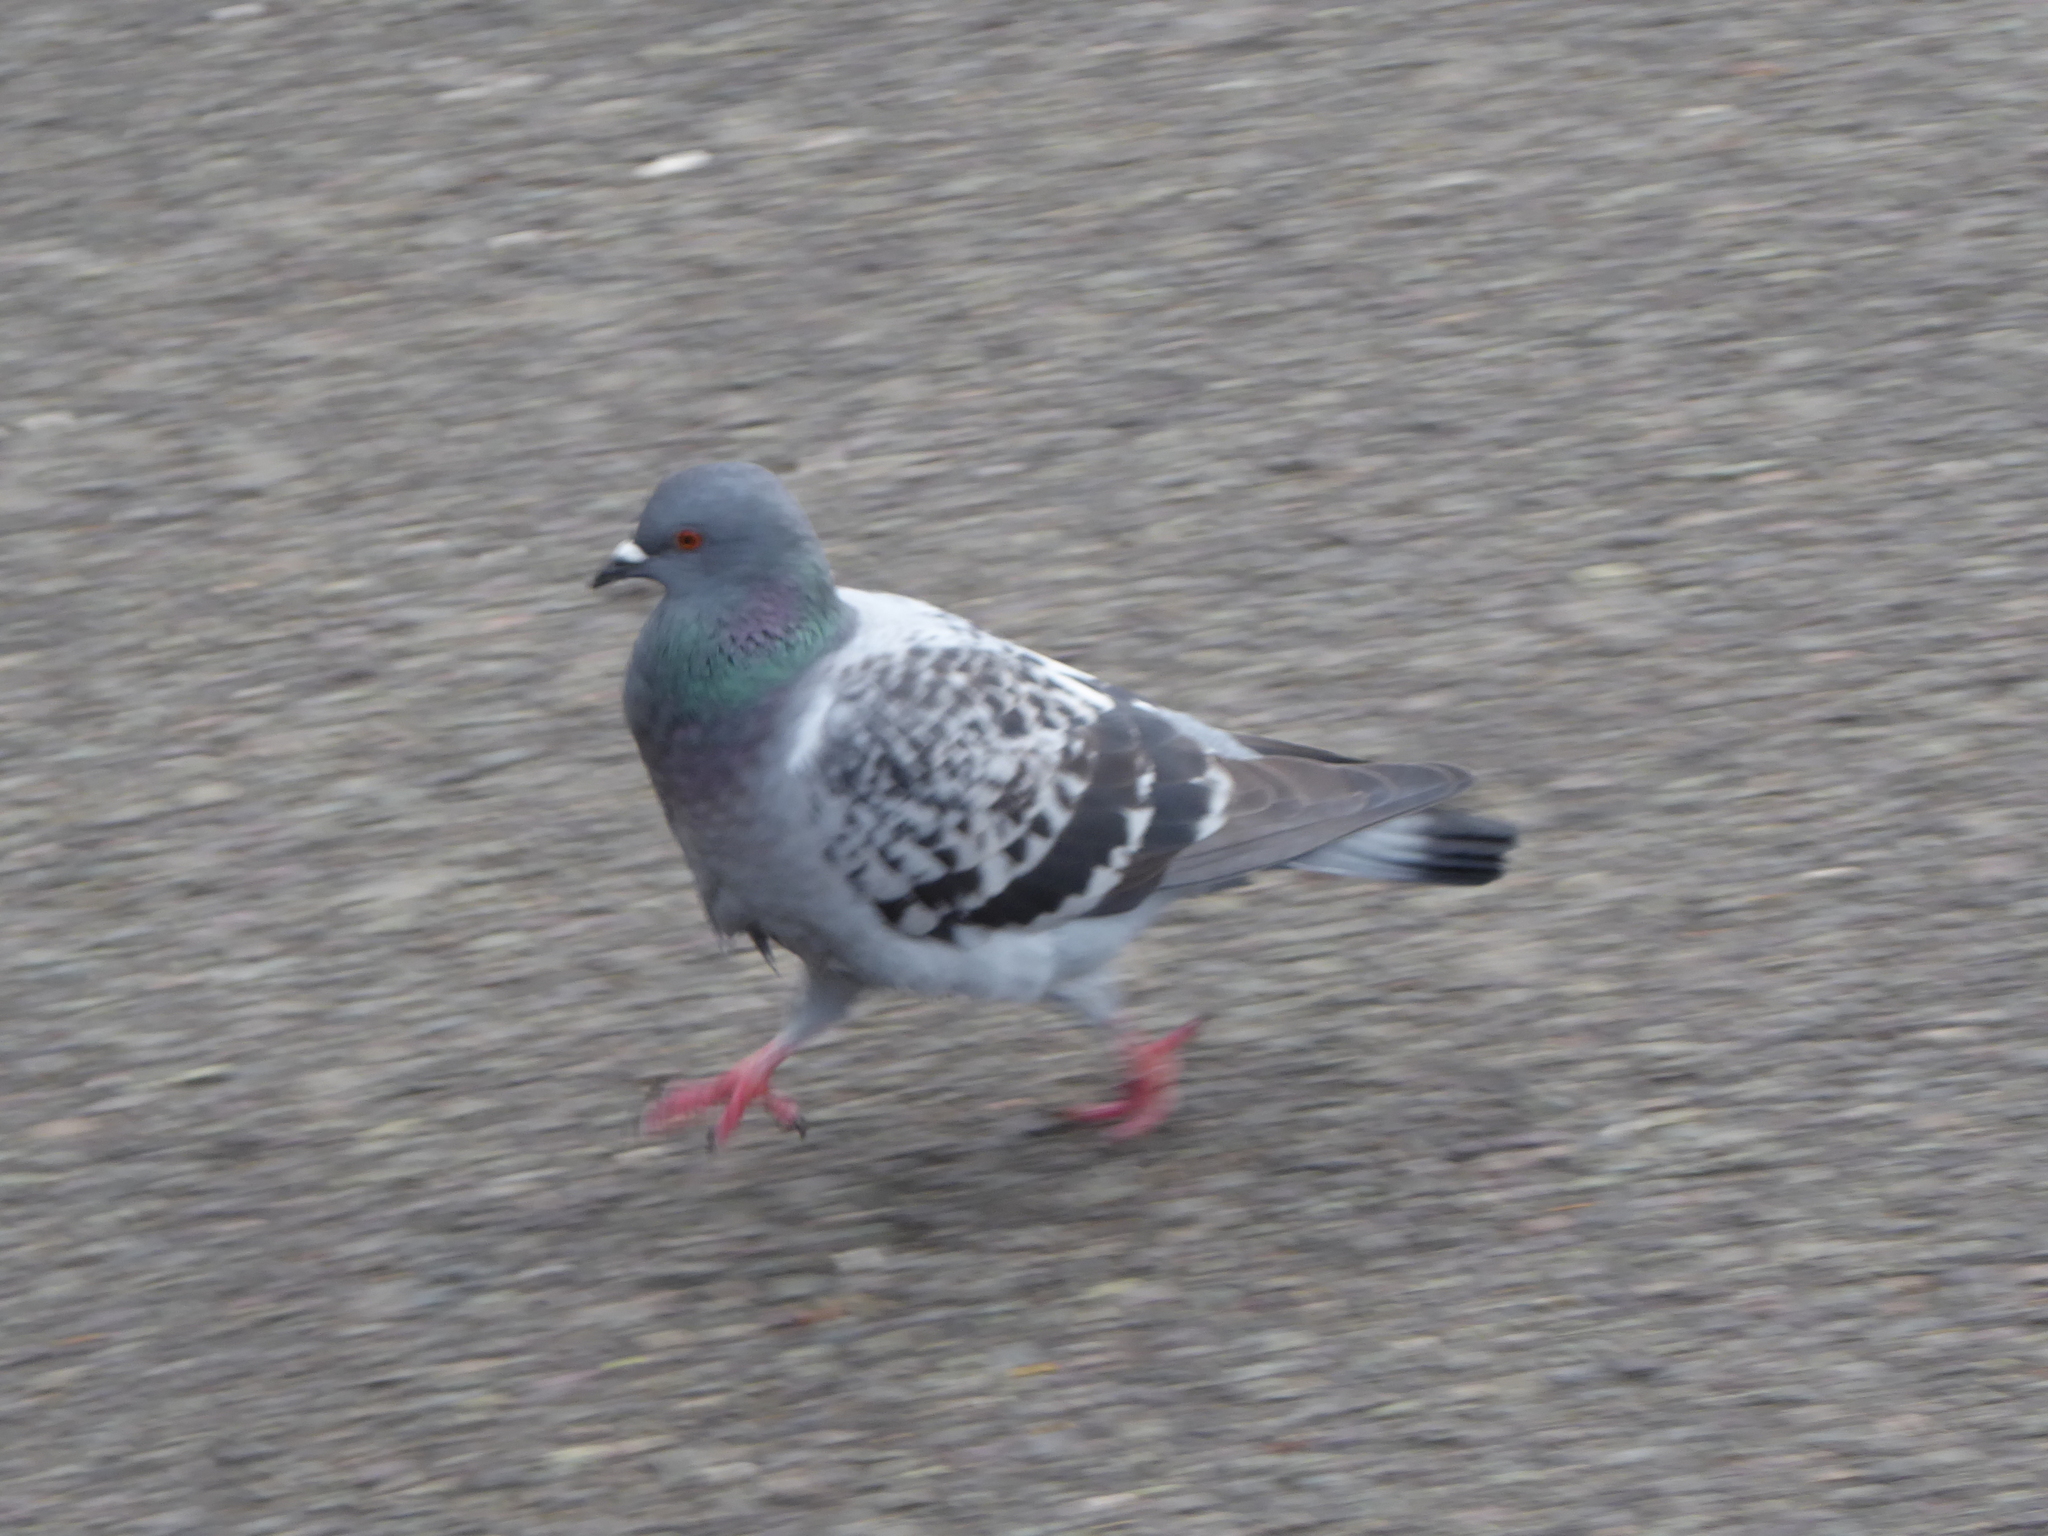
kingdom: Animalia
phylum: Chordata
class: Aves
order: Columbiformes
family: Columbidae
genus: Columba
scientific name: Columba livia
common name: Rock pigeon
